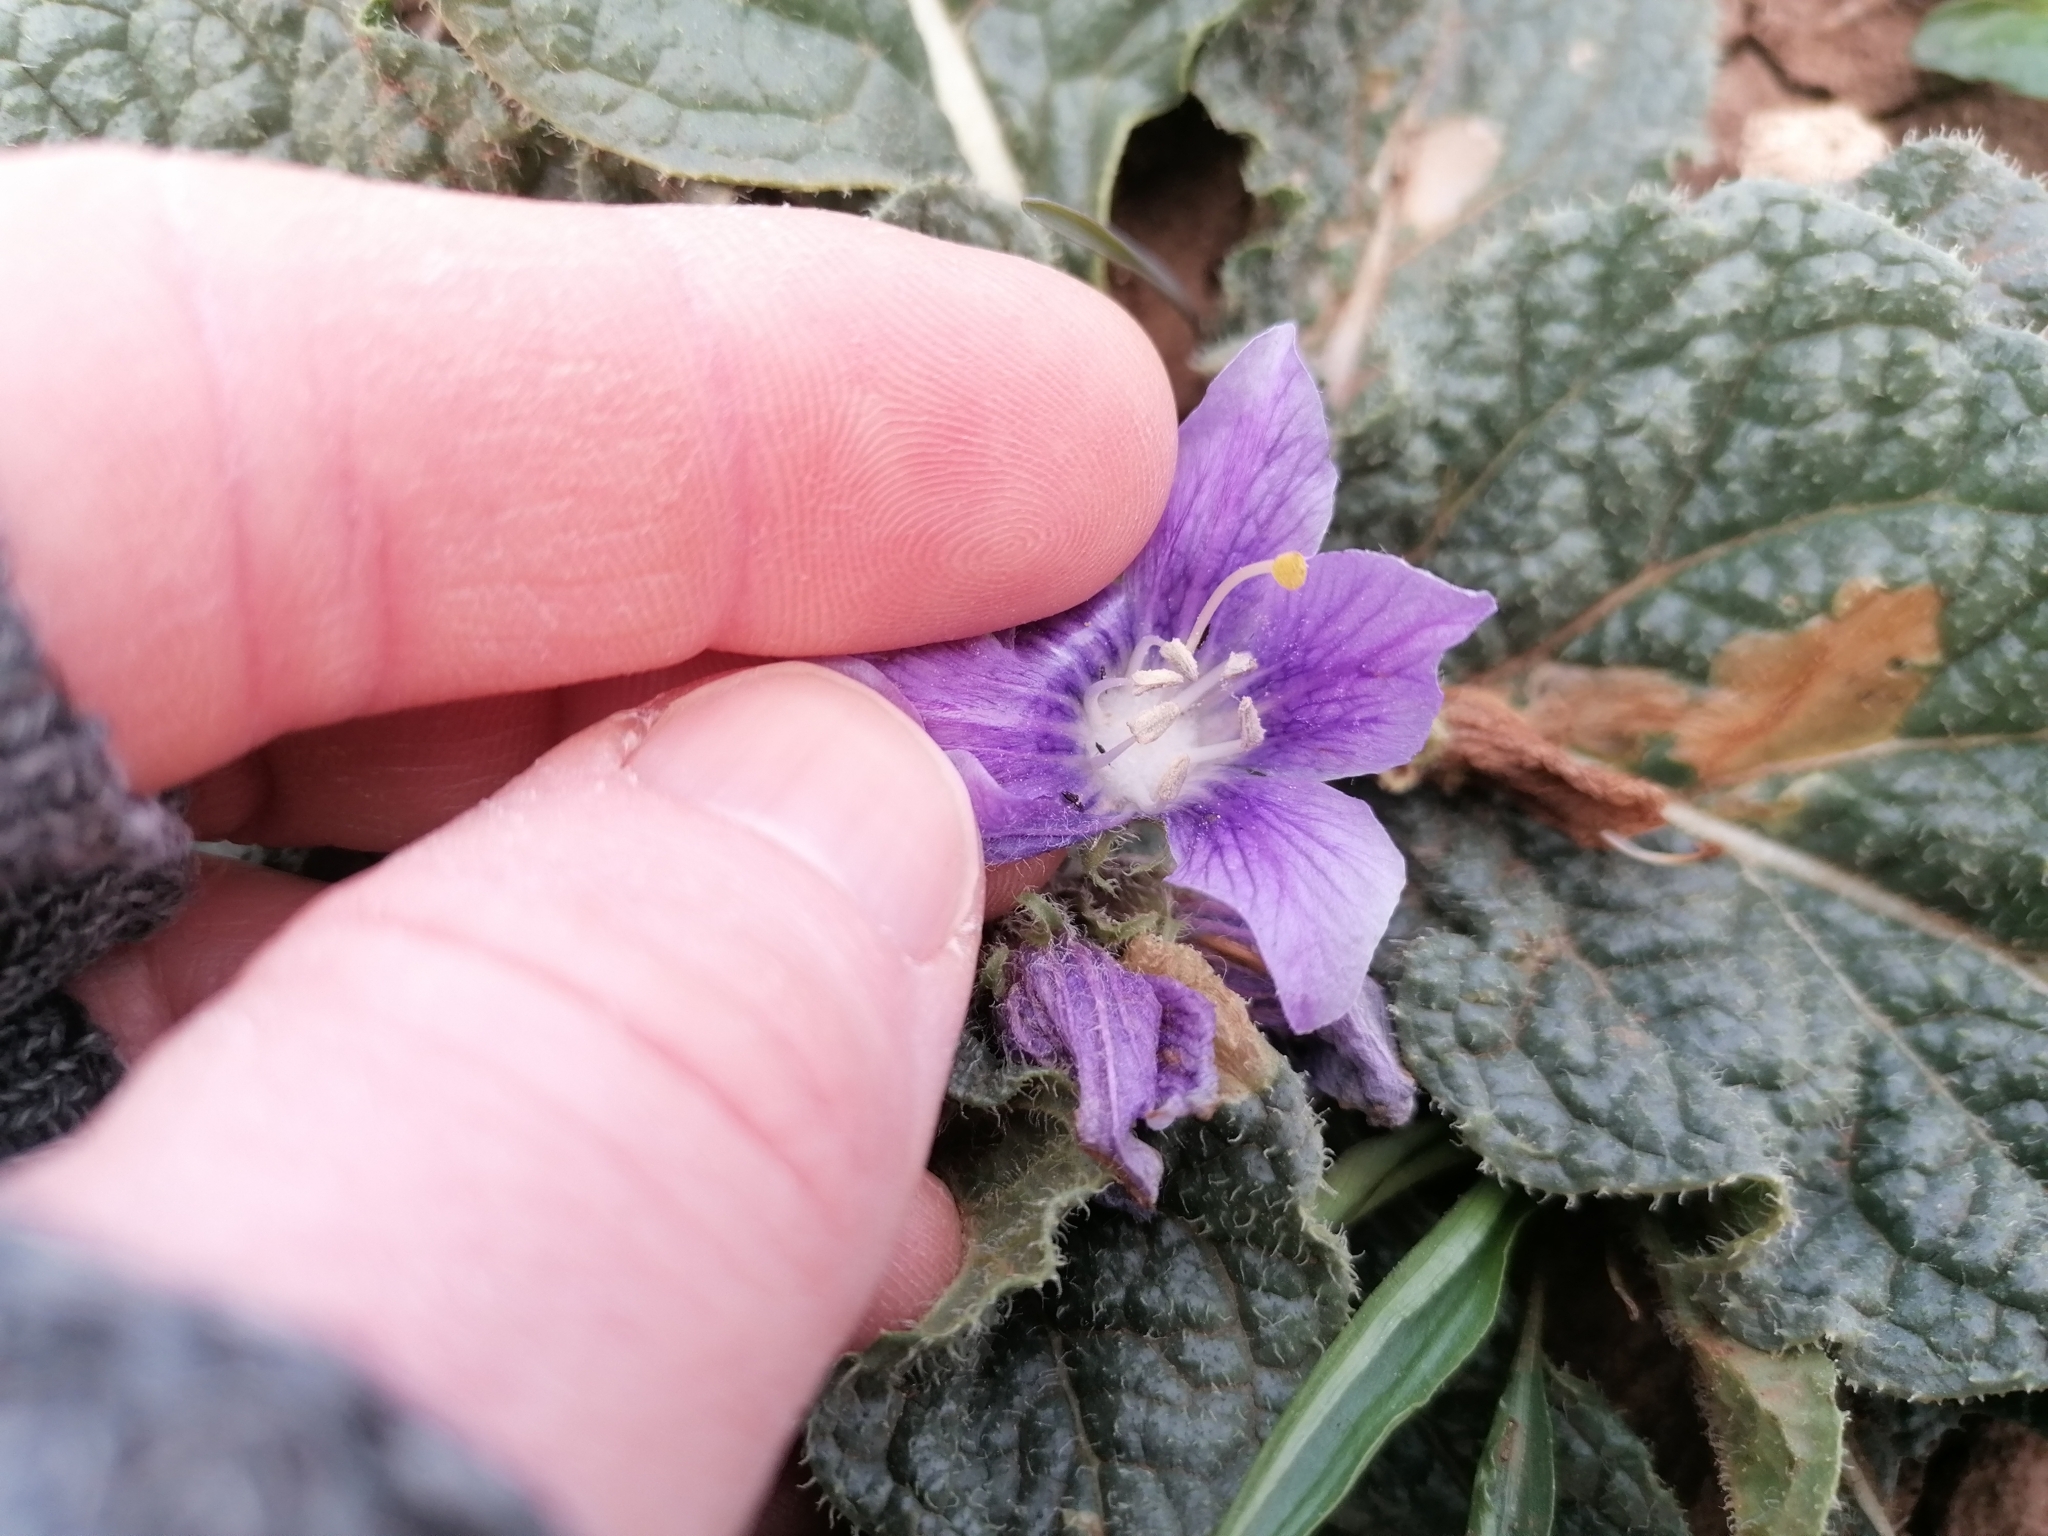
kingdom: Plantae
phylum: Tracheophyta
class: Magnoliopsida
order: Solanales
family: Solanaceae
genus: Mandragora
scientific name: Mandragora officinarum
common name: Mandrake
